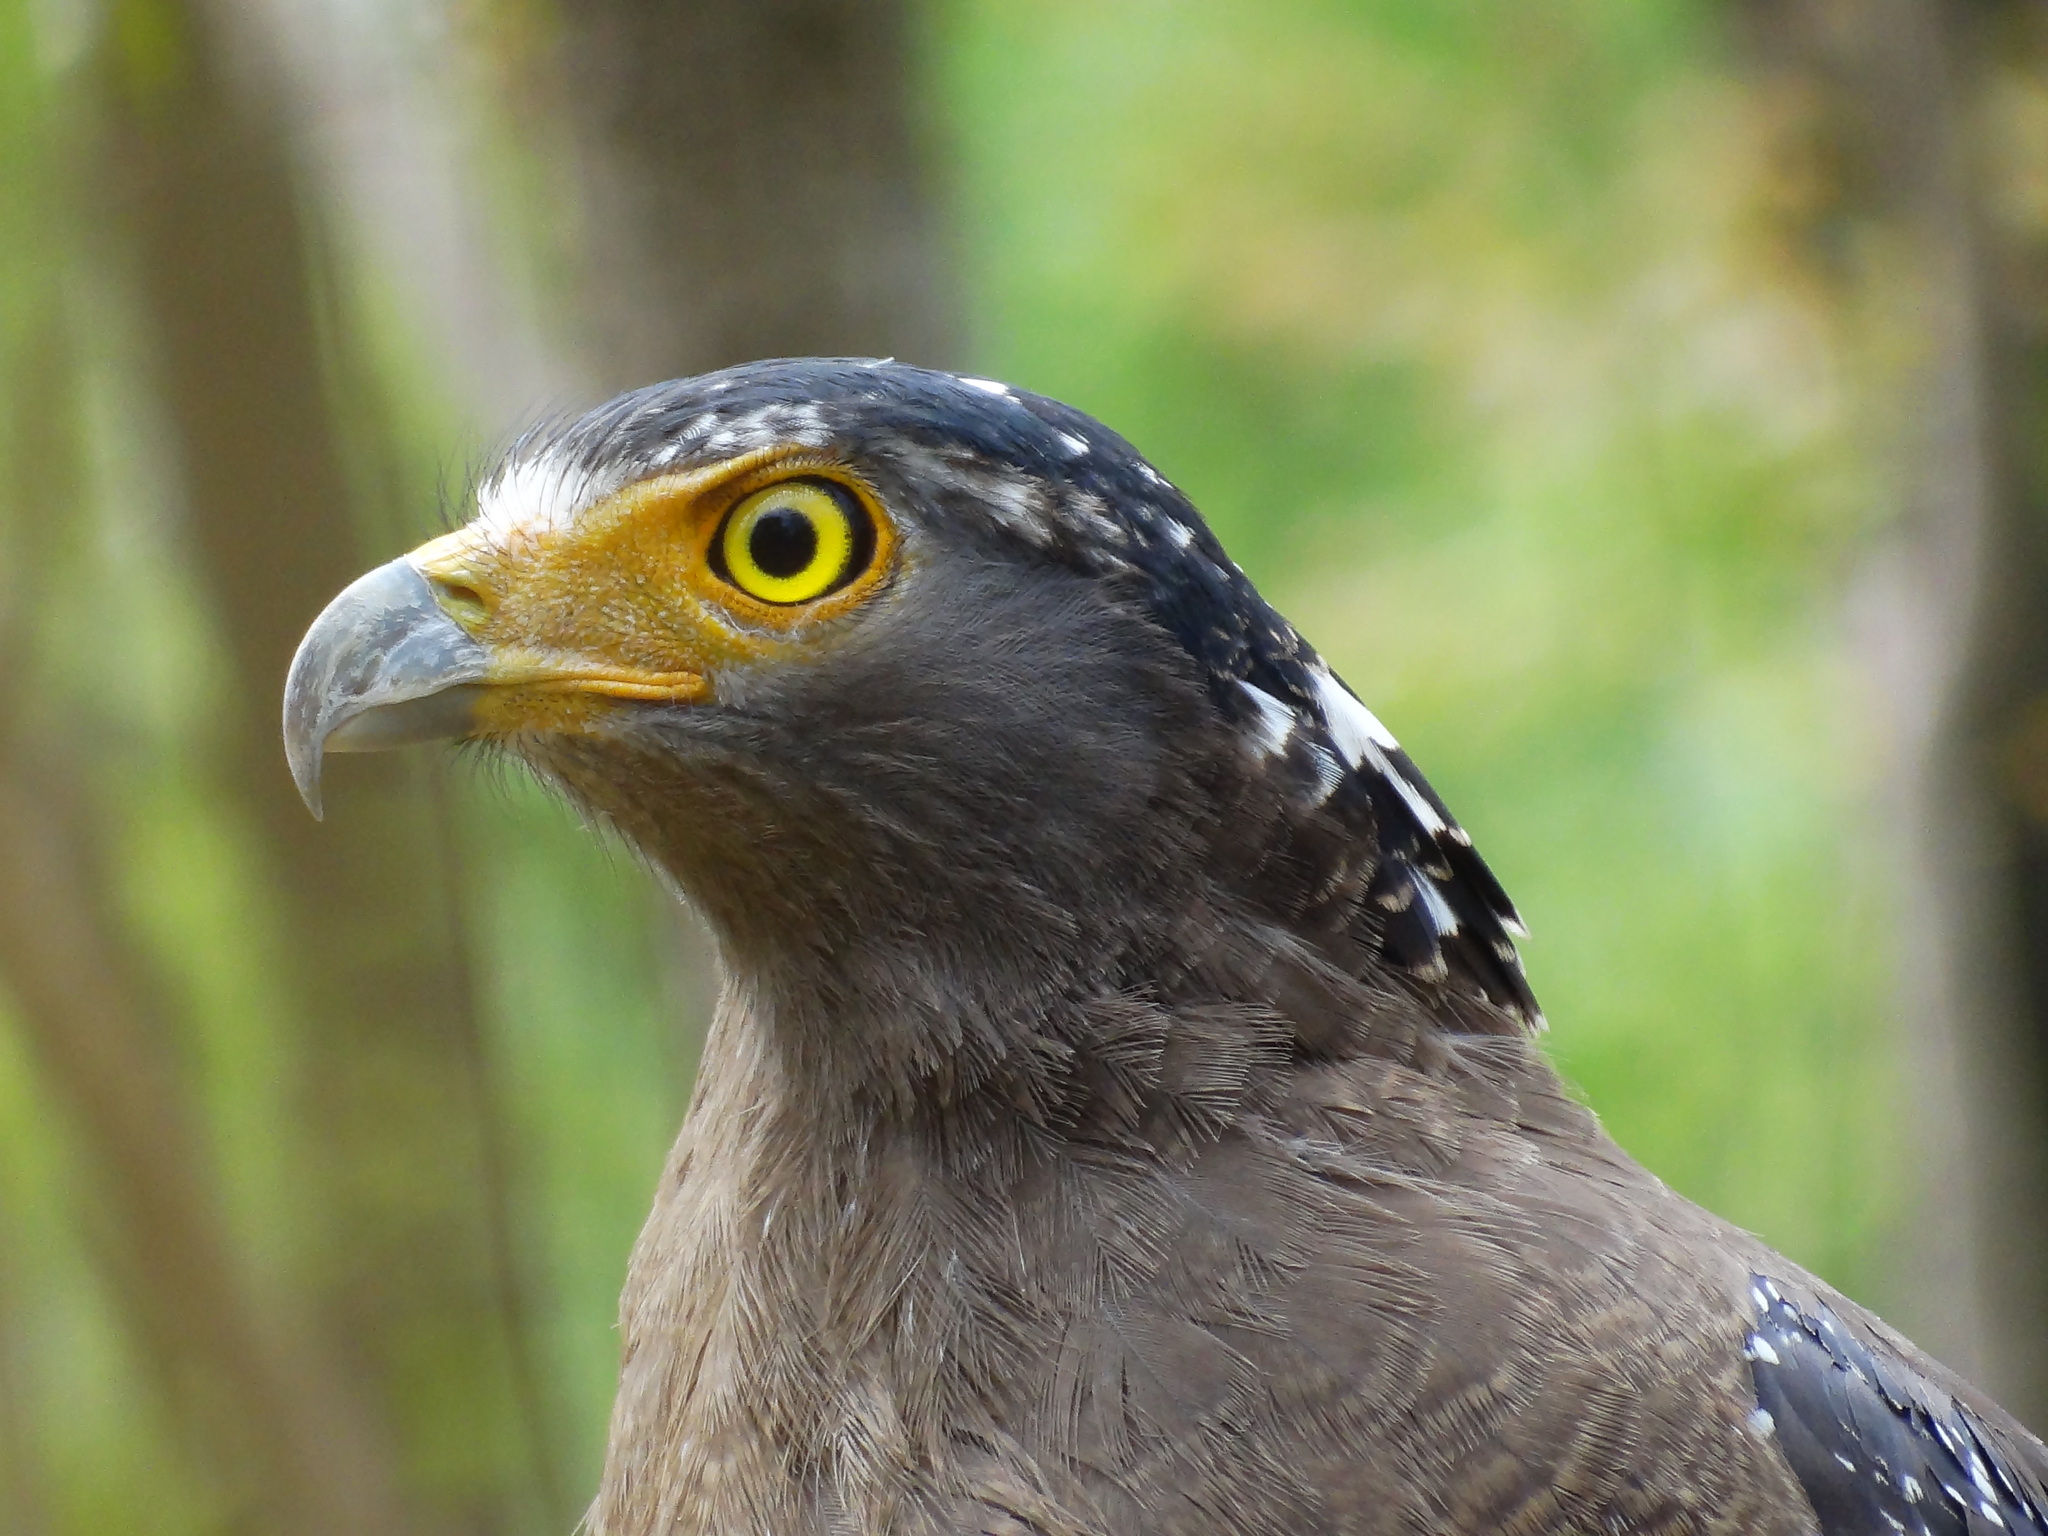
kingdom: Animalia
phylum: Chordata
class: Aves
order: Accipitriformes
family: Accipitridae
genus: Spilornis
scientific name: Spilornis cheela
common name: Crested serpent eagle
